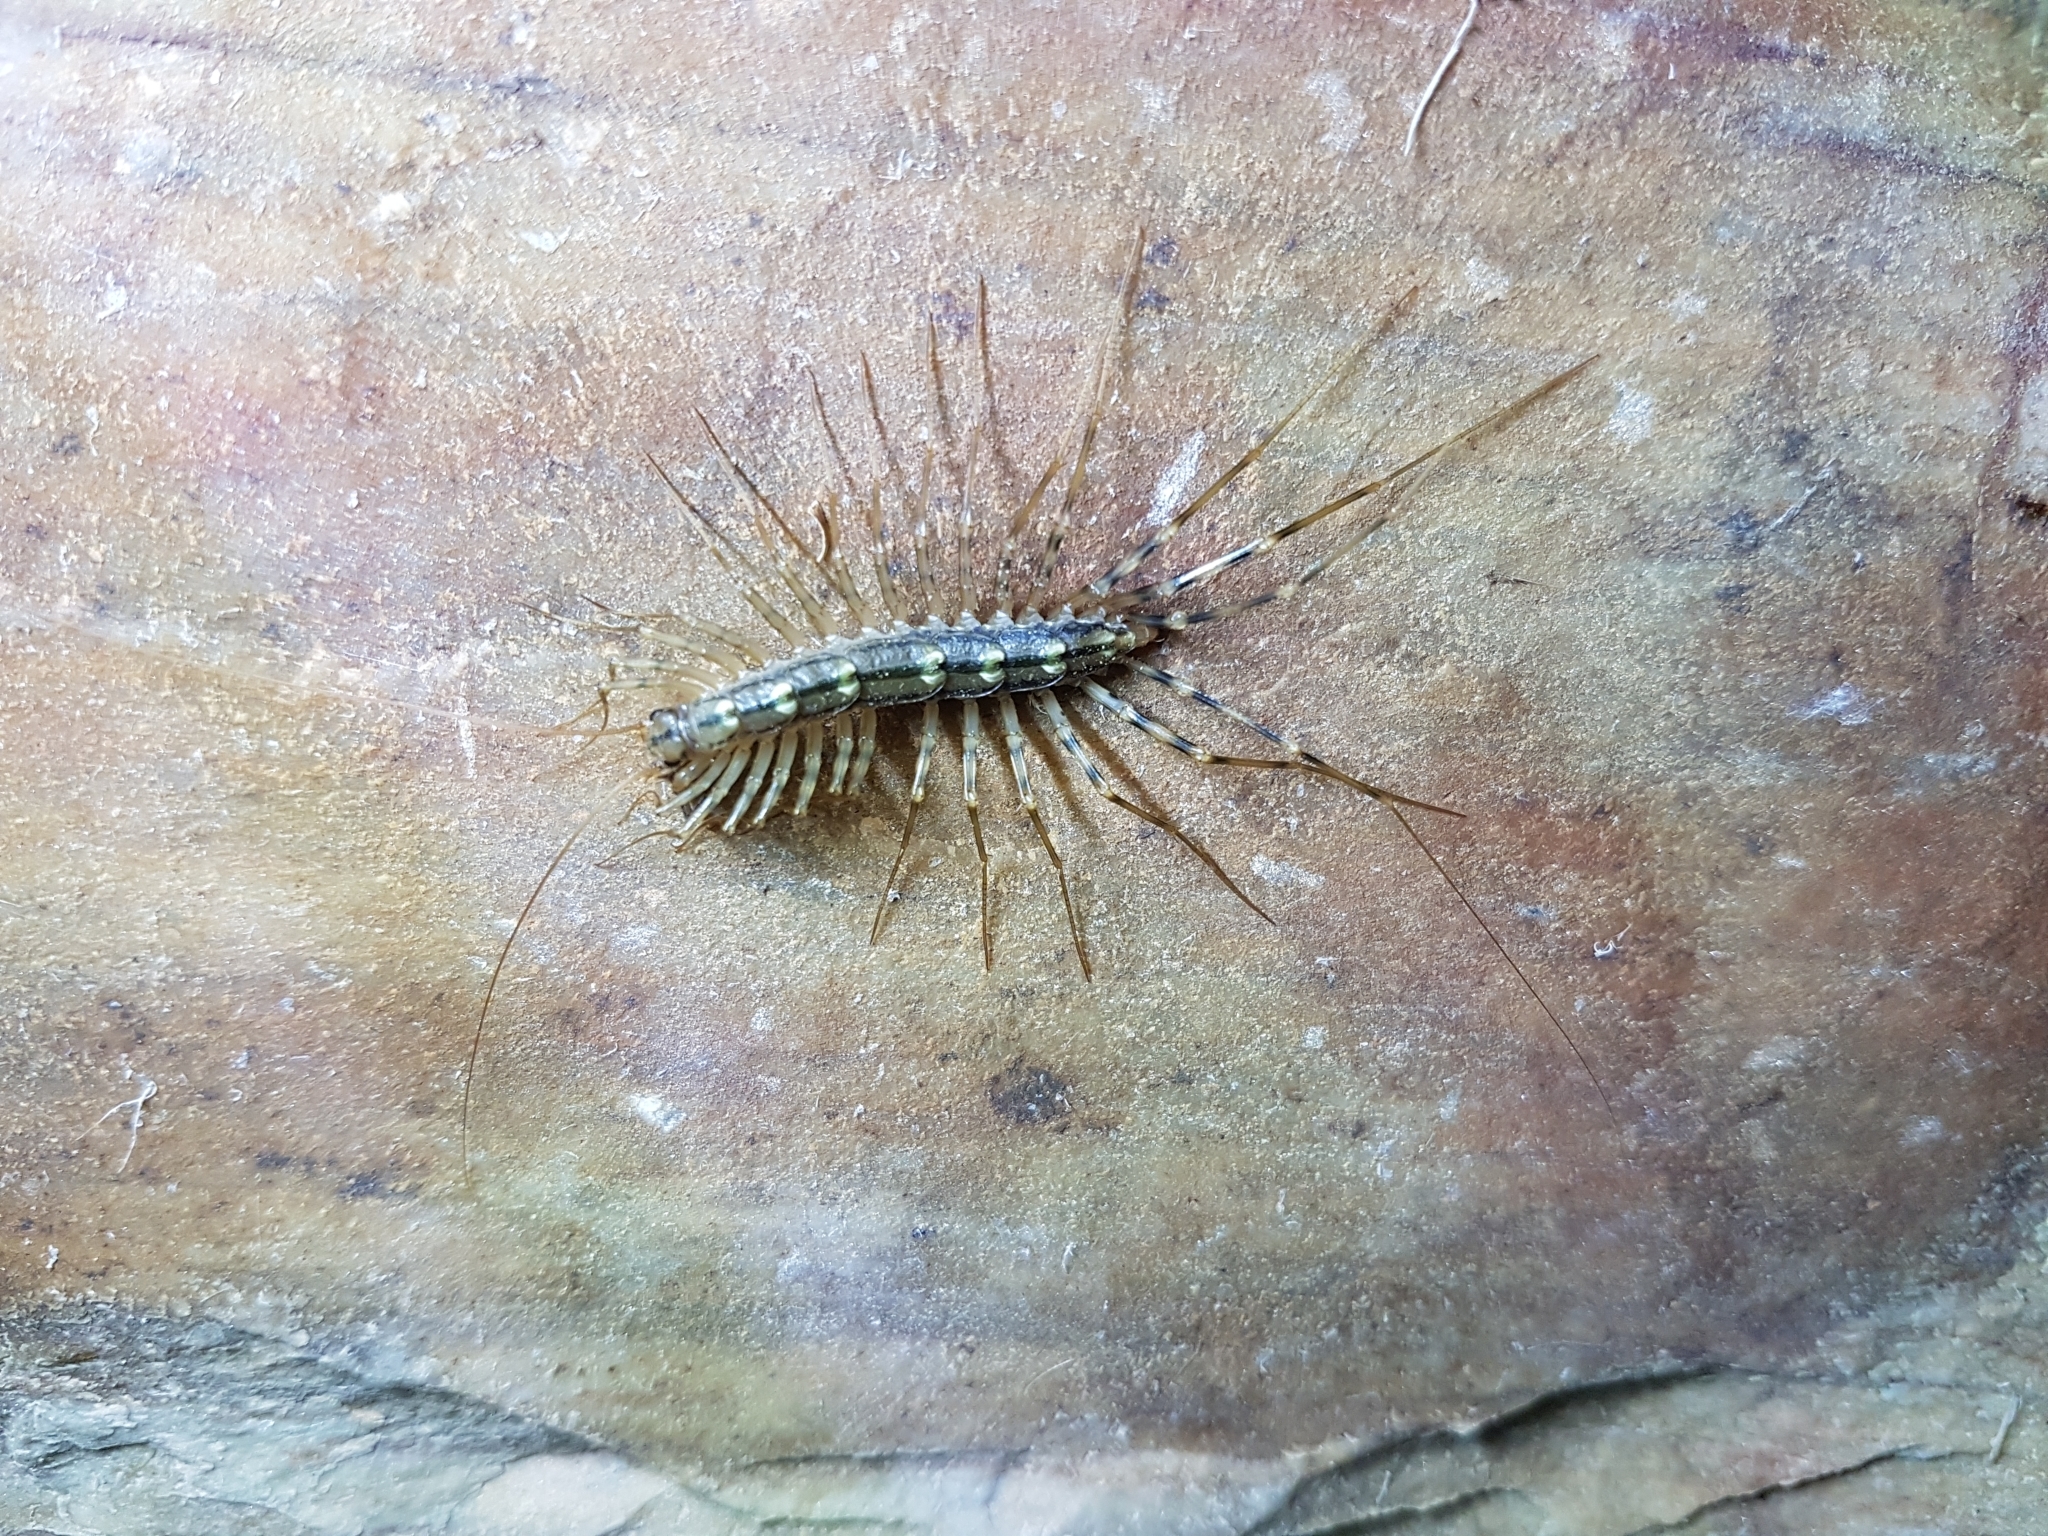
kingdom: Animalia
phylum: Arthropoda
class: Chilopoda
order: Scutigeromorpha
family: Scutigeridae
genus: Scutigera
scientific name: Scutigera coleoptrata
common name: House centipede
